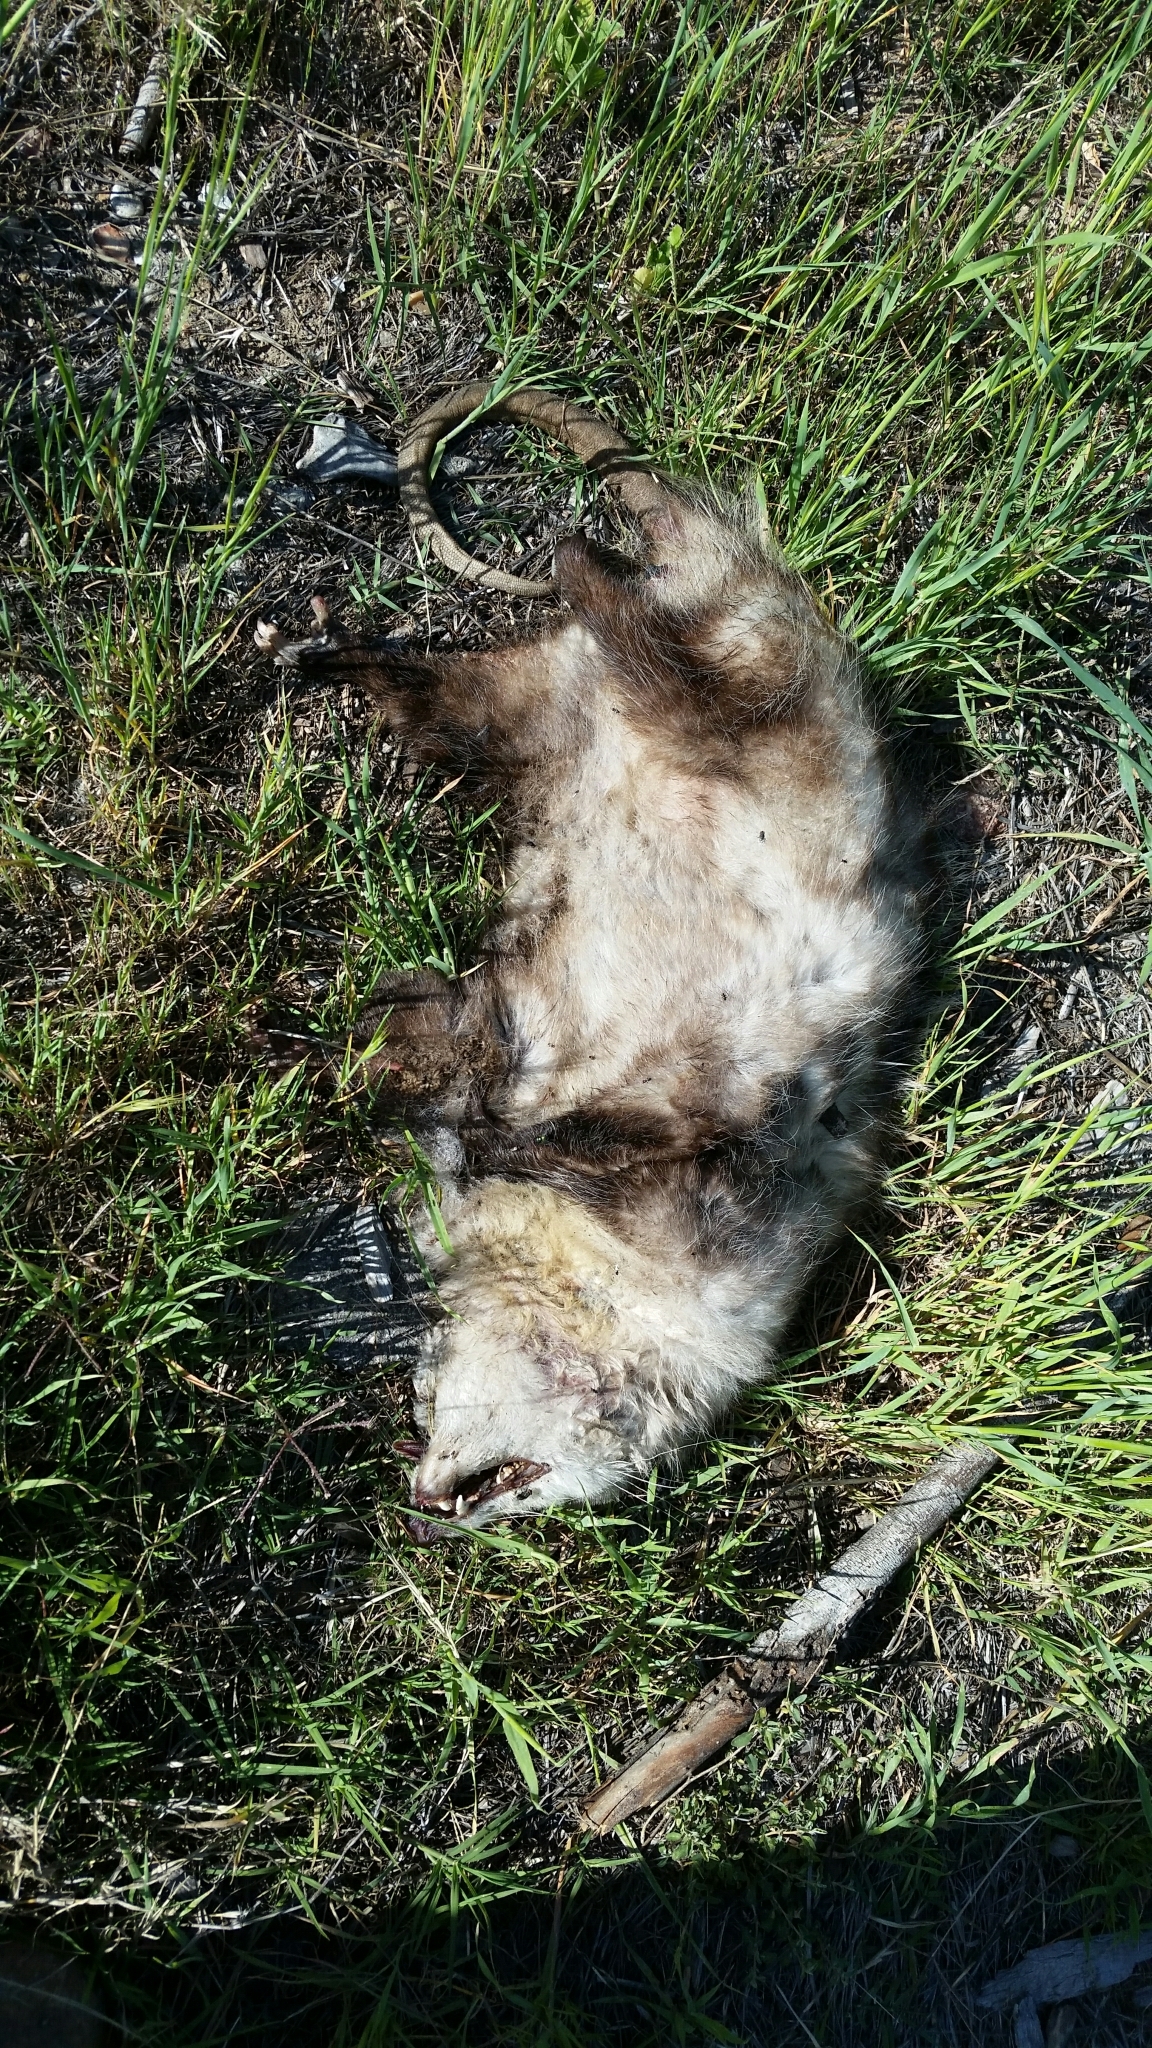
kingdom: Animalia
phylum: Chordata
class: Mammalia
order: Didelphimorphia
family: Didelphidae
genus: Didelphis
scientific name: Didelphis virginiana
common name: Virginia opossum
